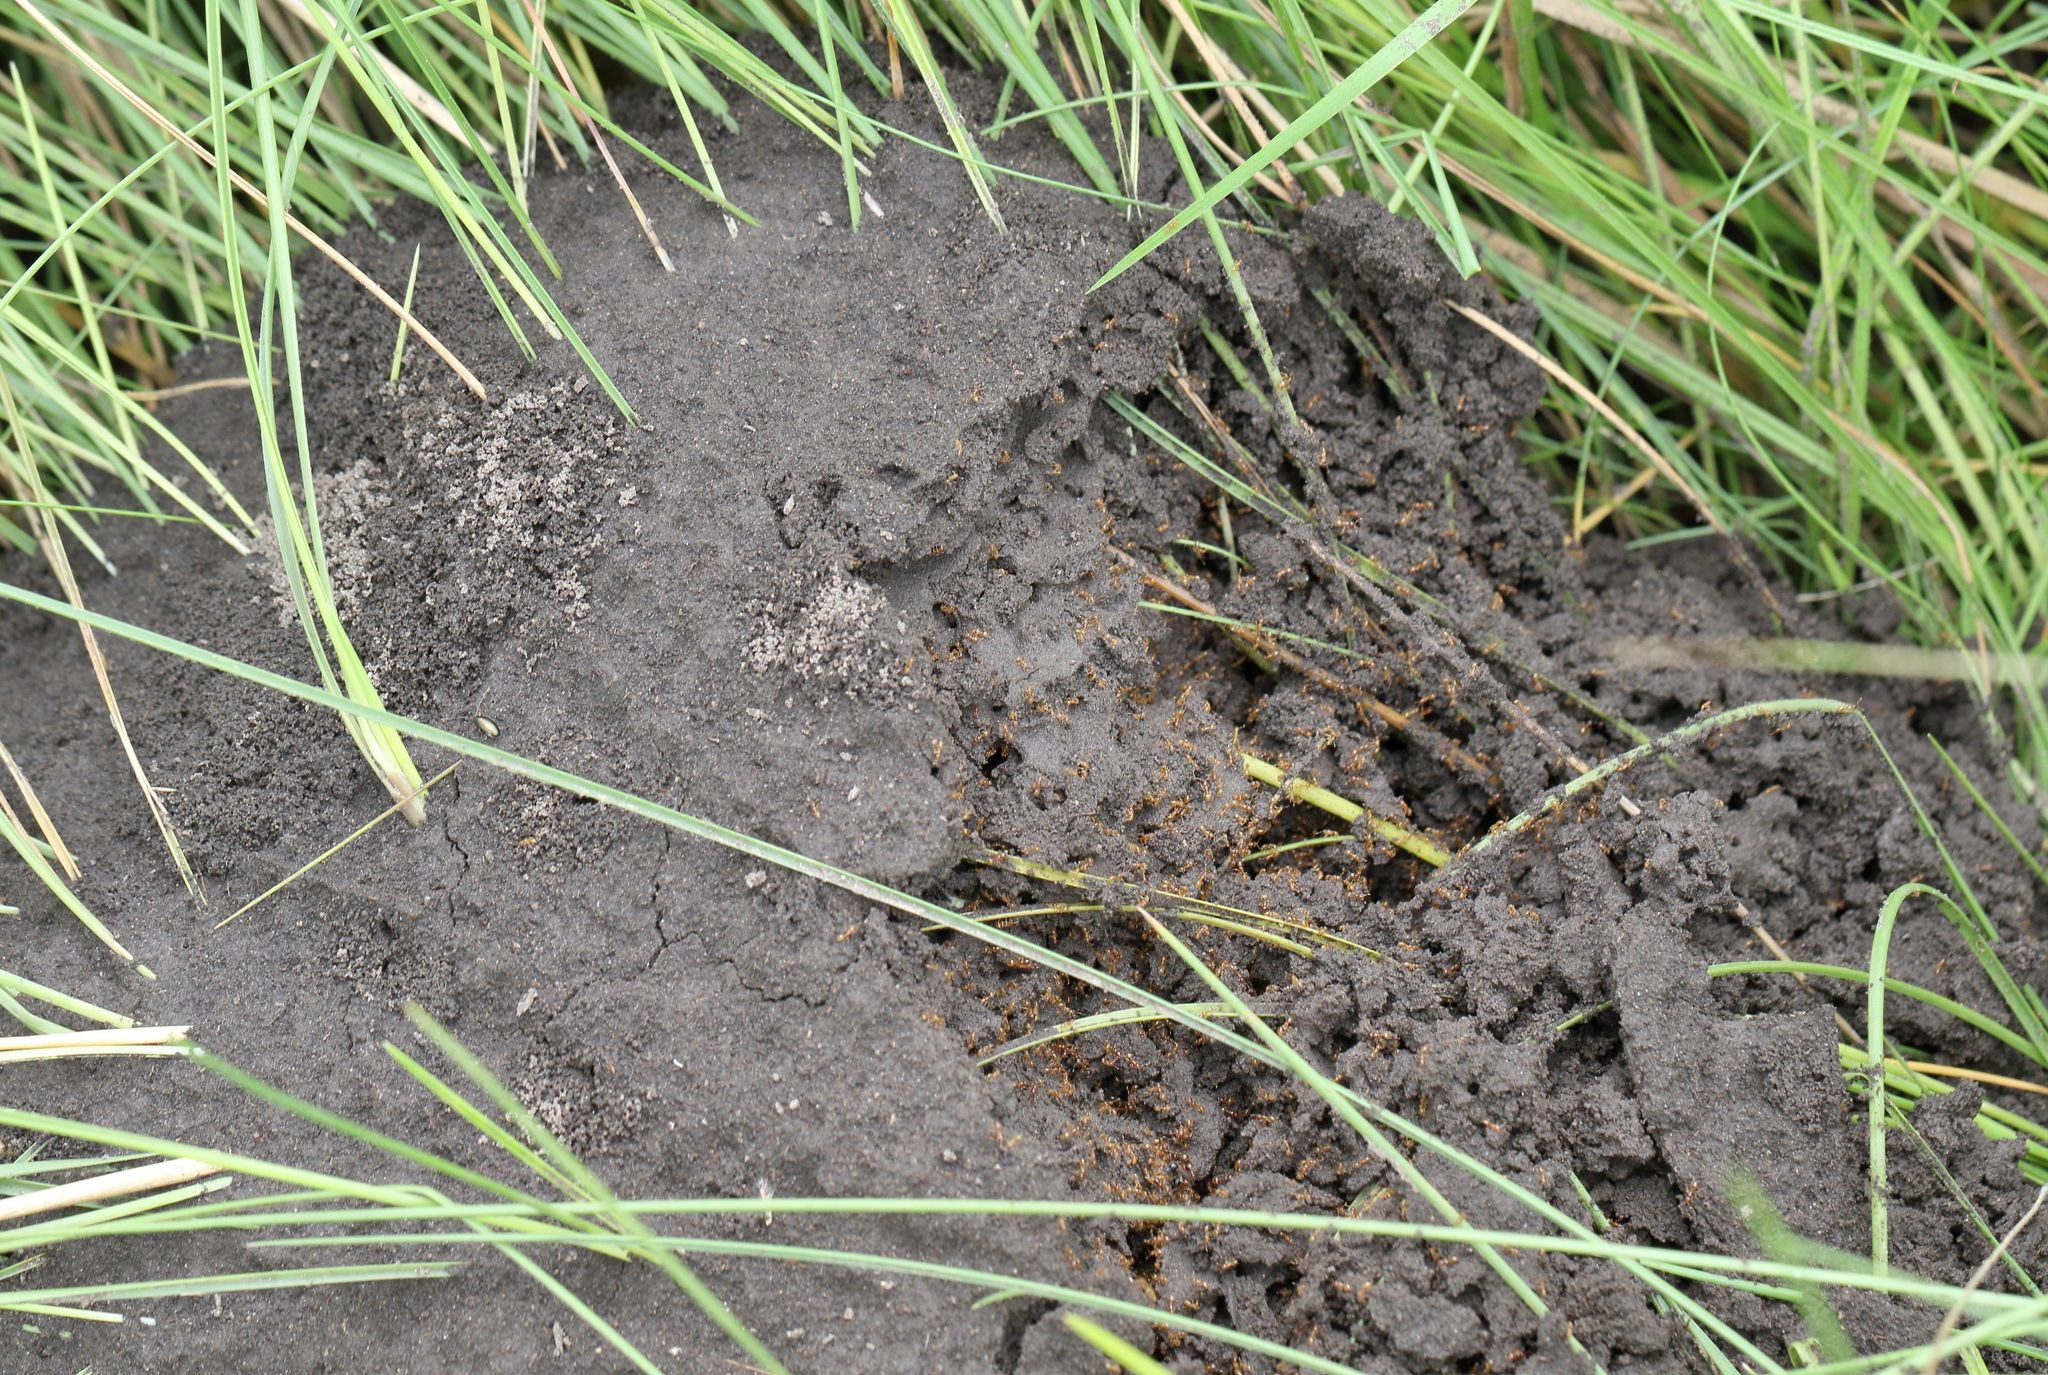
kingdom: Animalia
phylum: Arthropoda
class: Insecta
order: Hymenoptera
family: Formicidae
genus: Solenopsis
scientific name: Solenopsis punctaticeps
